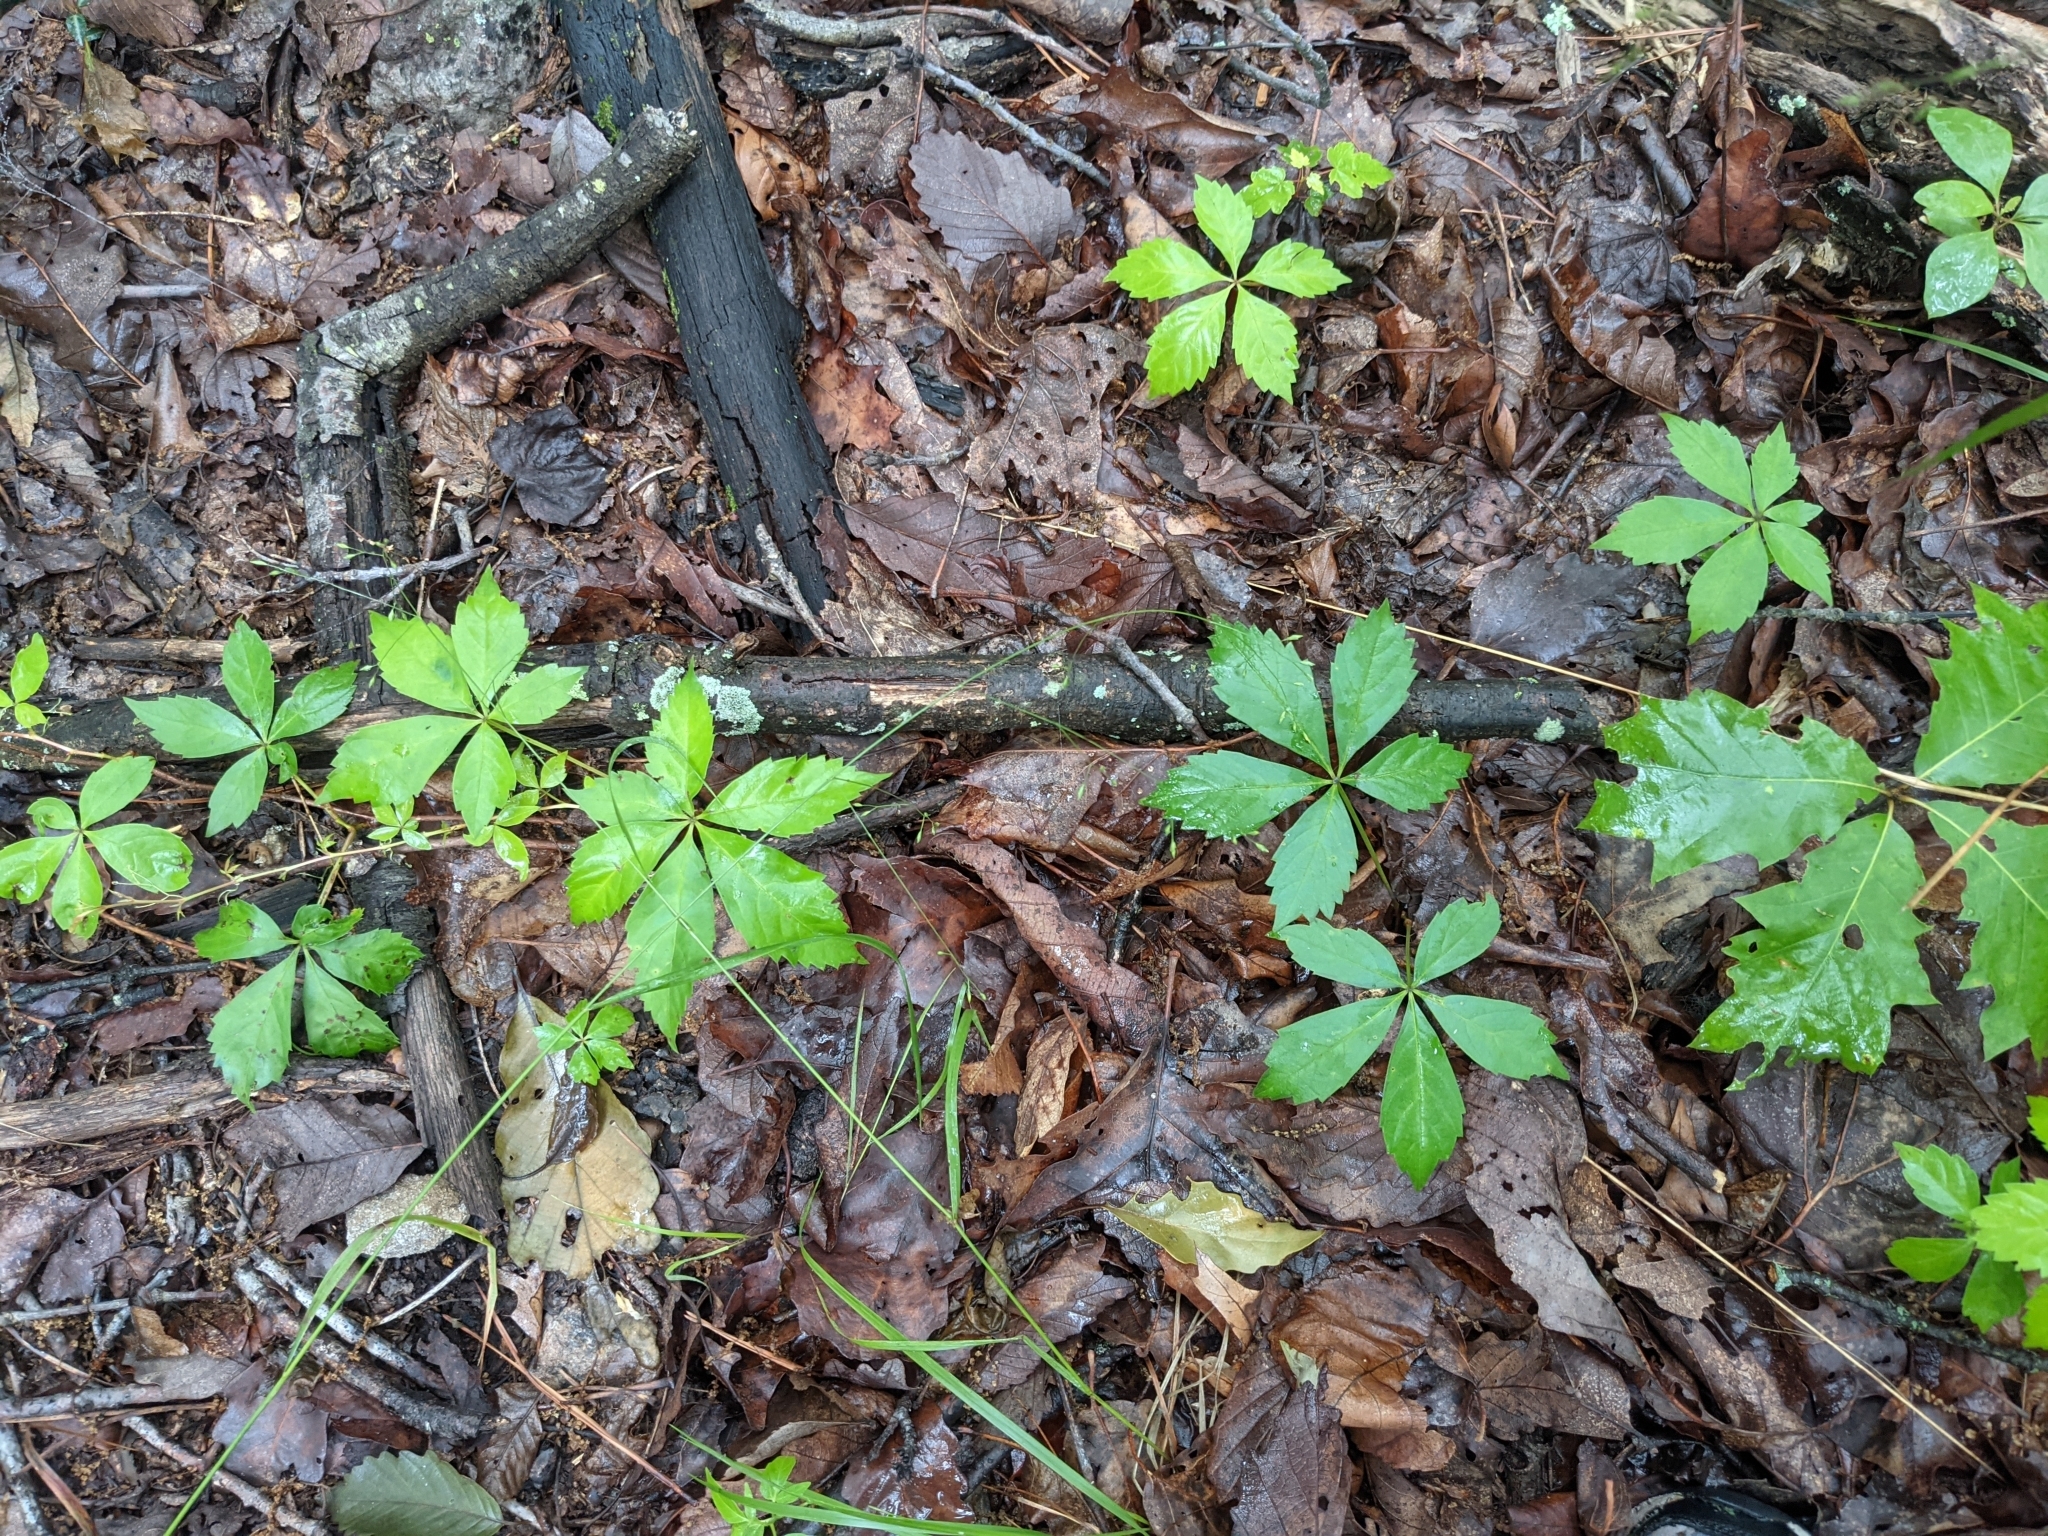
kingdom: Plantae
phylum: Tracheophyta
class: Magnoliopsida
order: Vitales
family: Vitaceae
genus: Parthenocissus
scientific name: Parthenocissus quinquefolia
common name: Virginia-creeper
